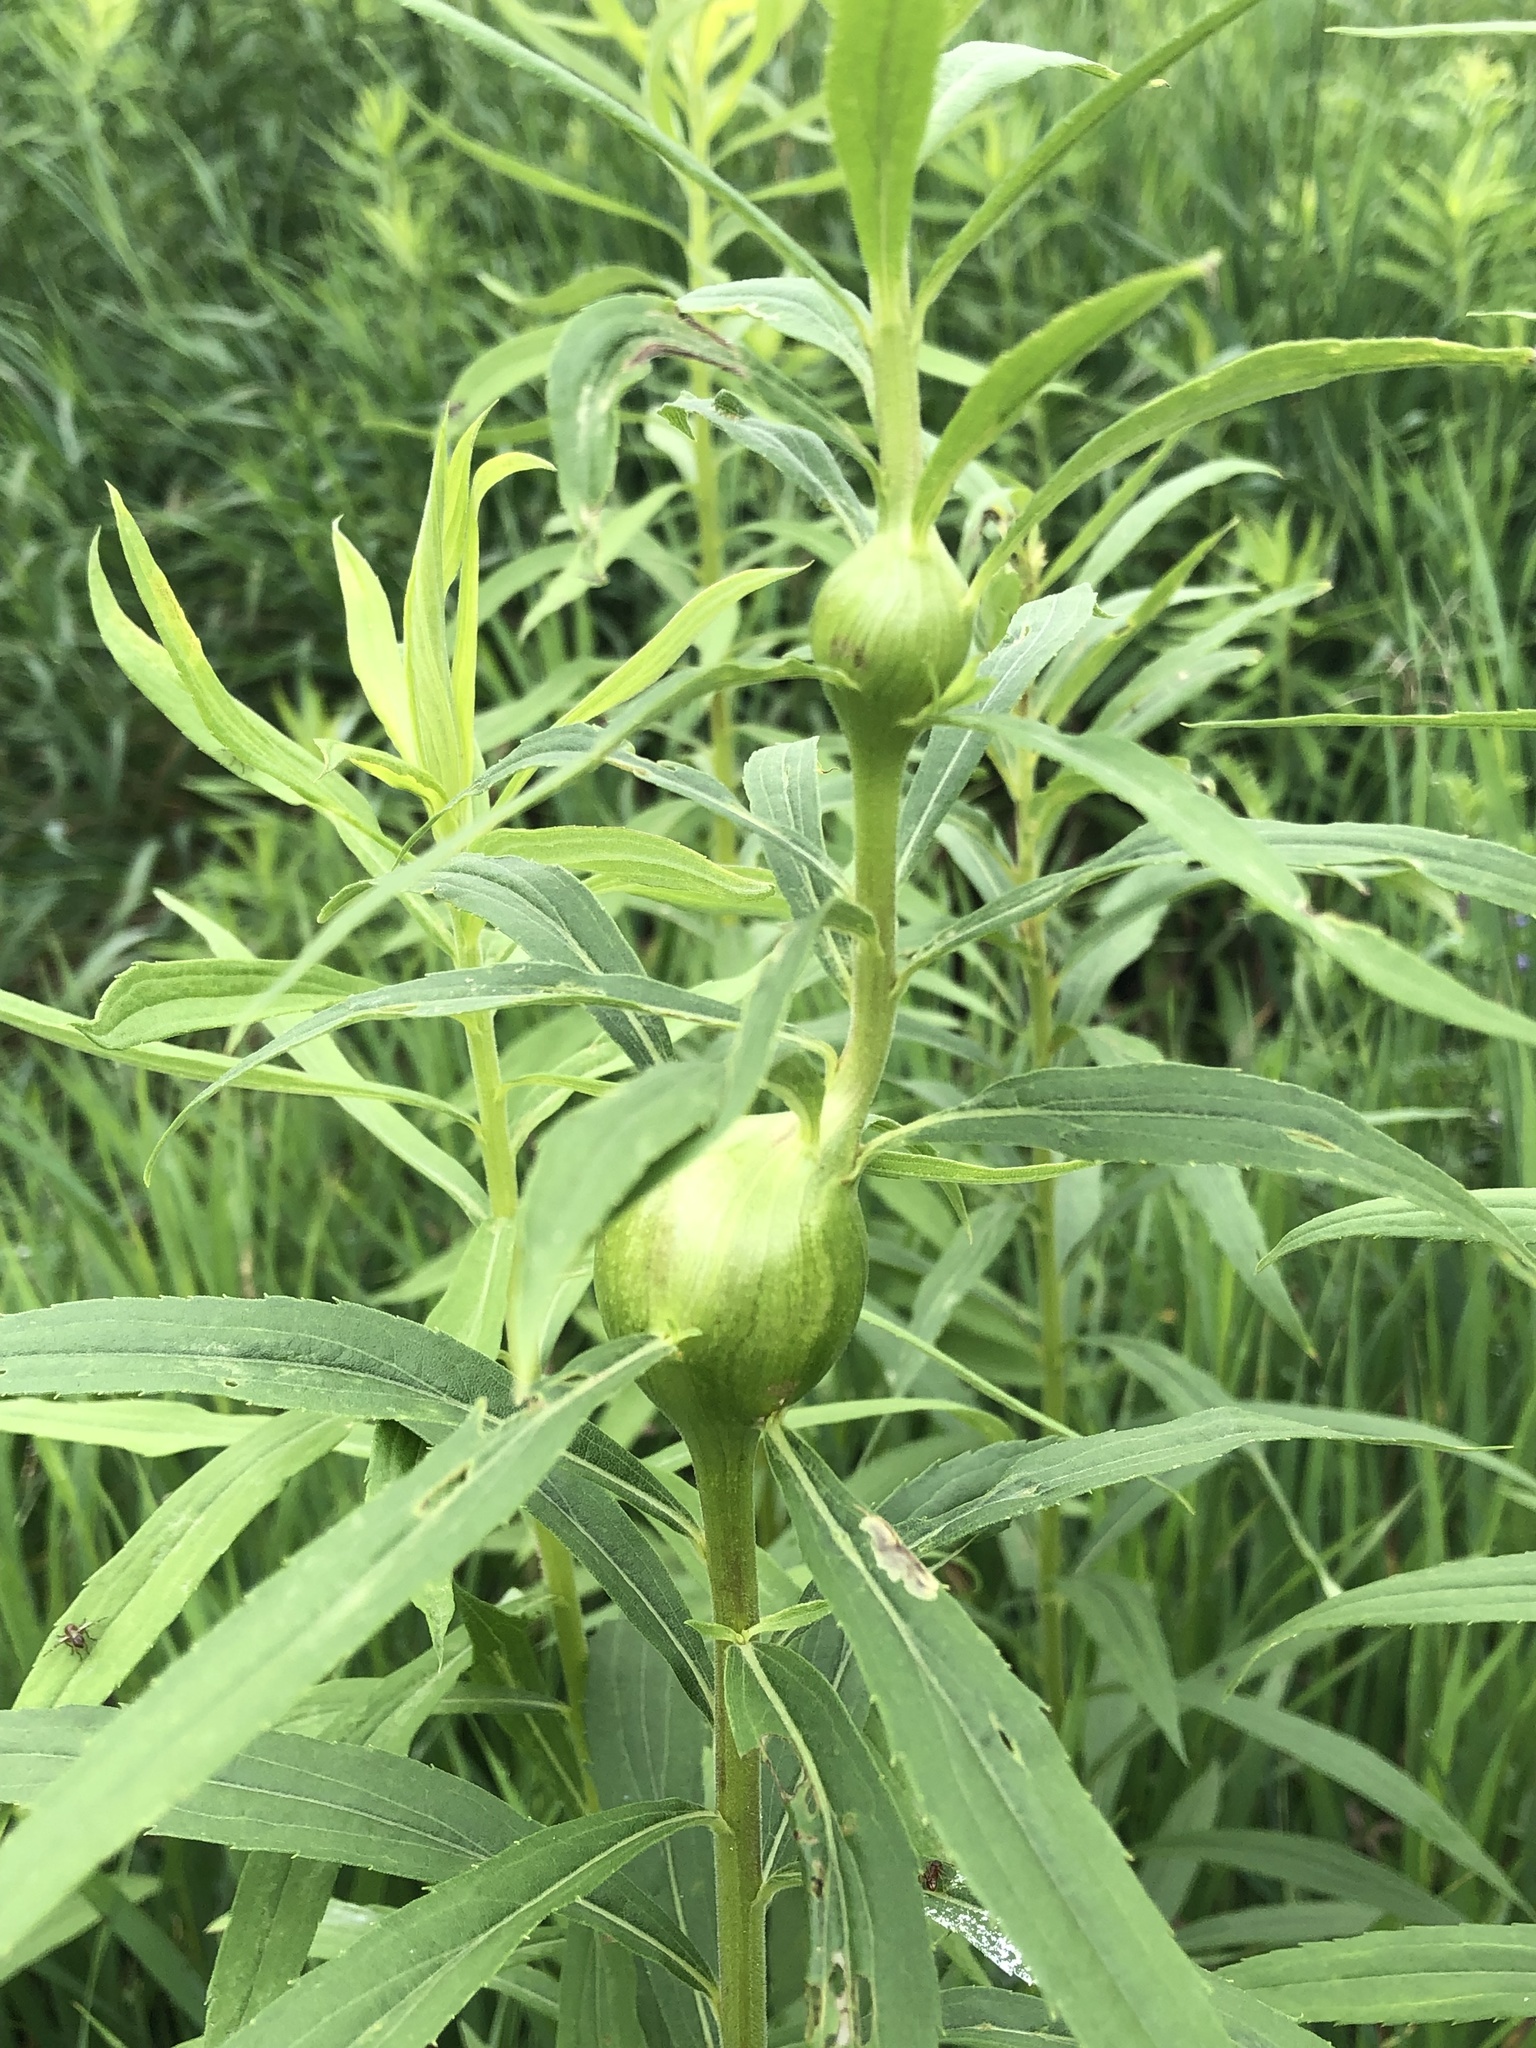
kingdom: Animalia
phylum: Arthropoda
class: Insecta
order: Diptera
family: Tephritidae
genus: Eurosta
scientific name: Eurosta solidaginis
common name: Goldenrod gall fly
